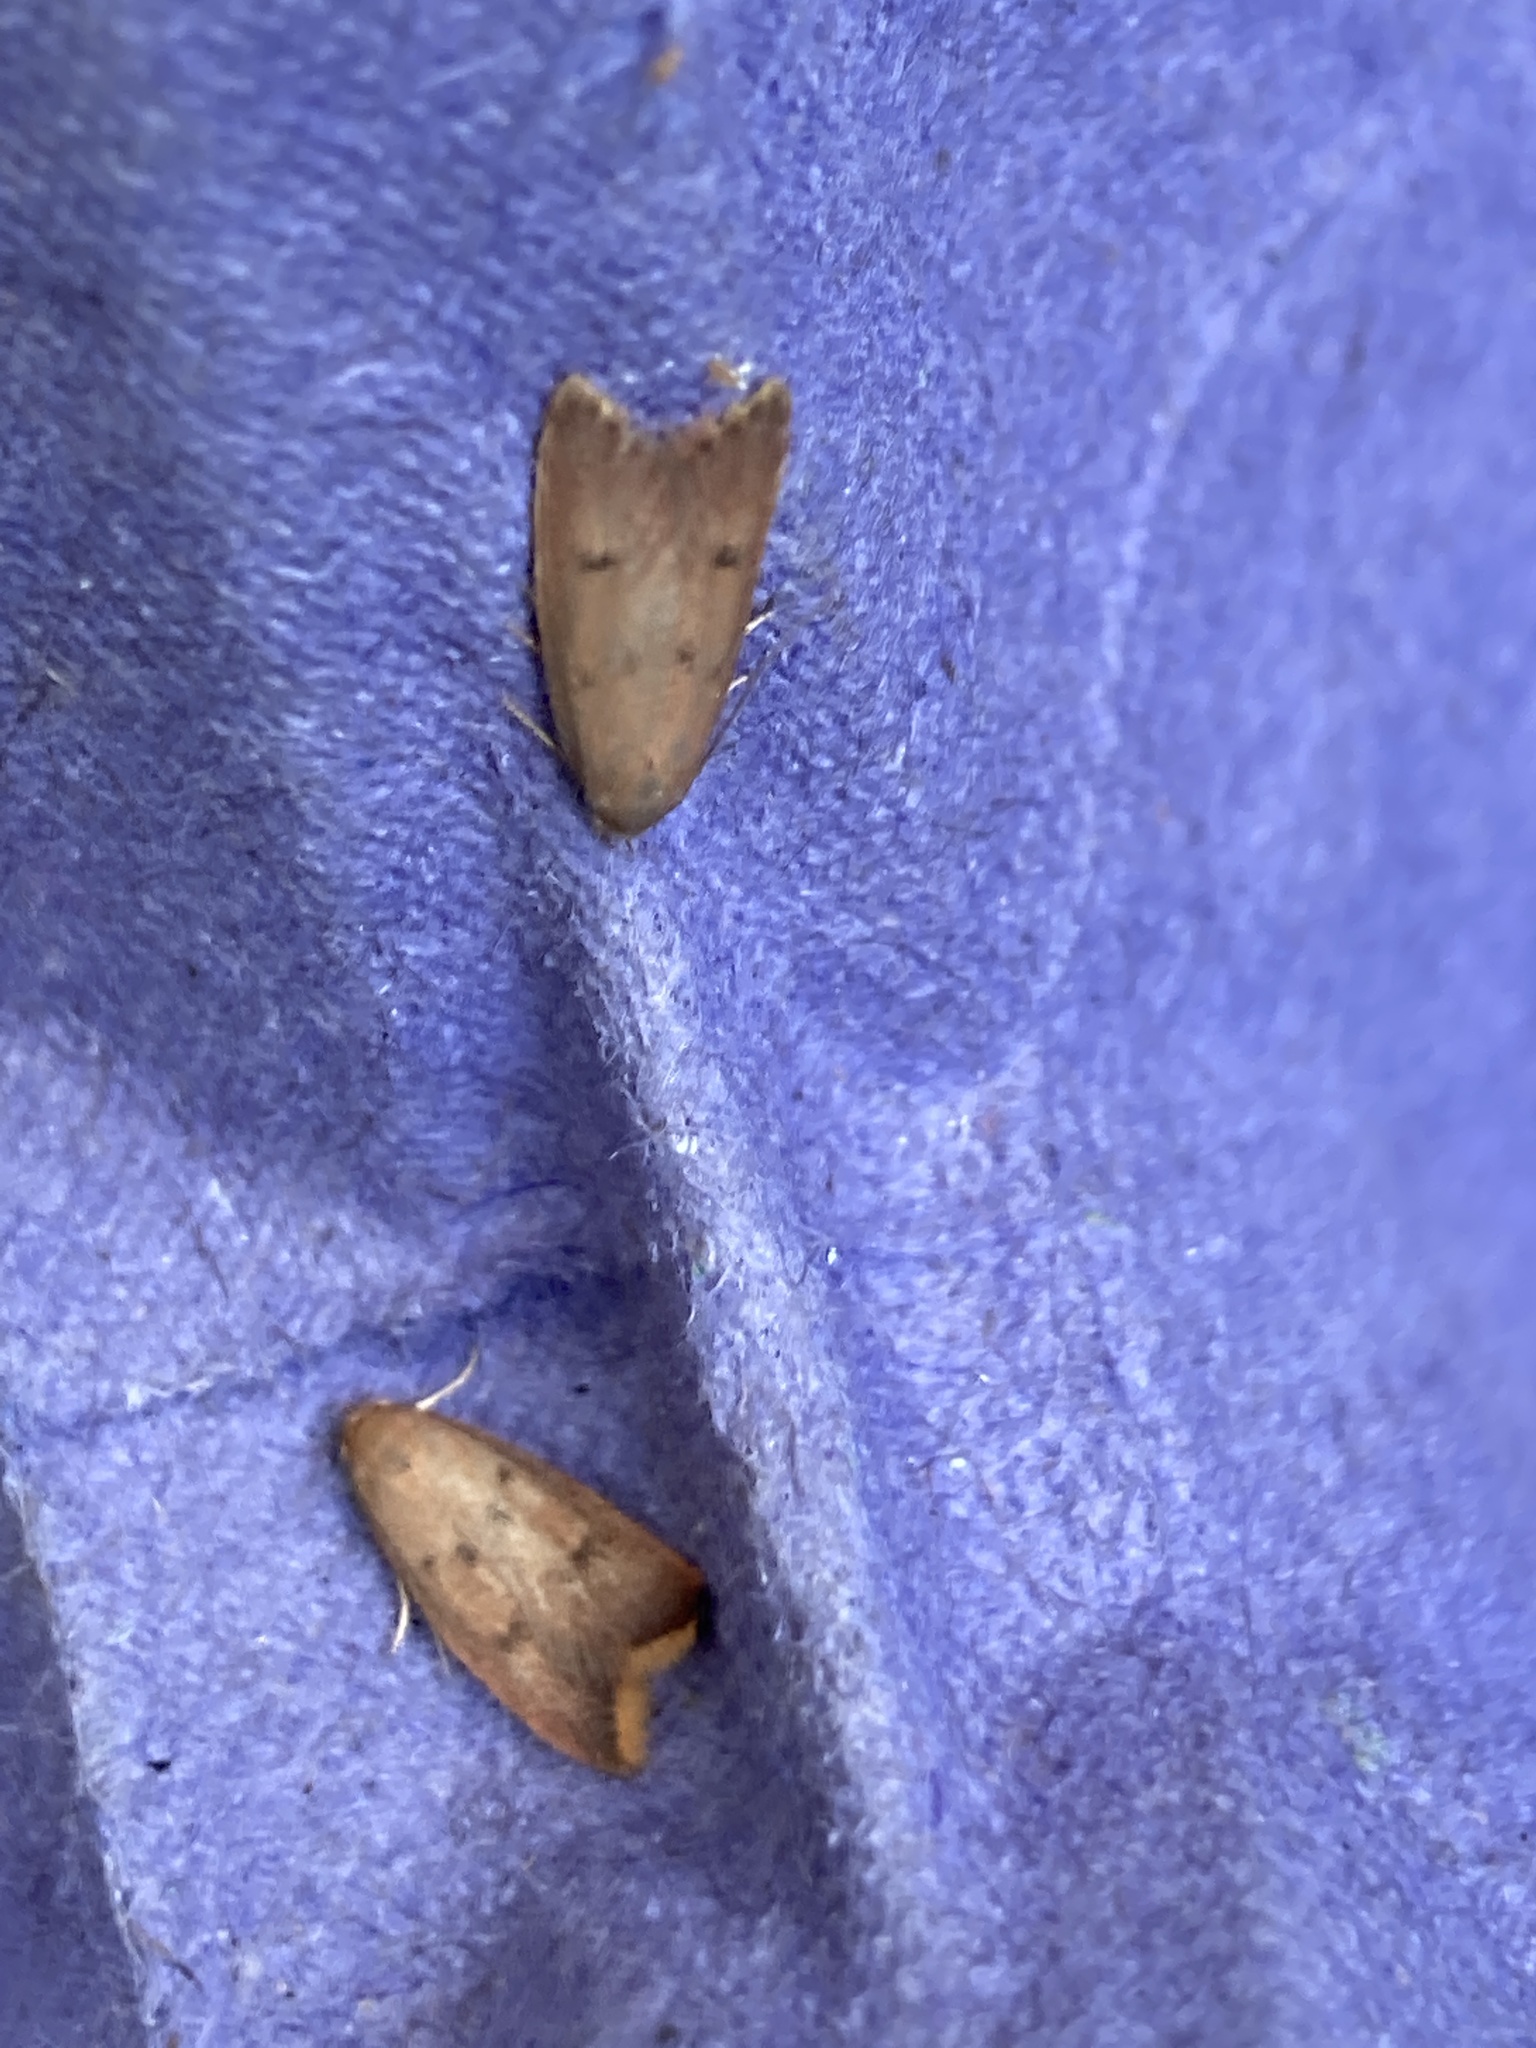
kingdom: Animalia
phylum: Arthropoda
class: Insecta
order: Lepidoptera
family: Oecophoridae
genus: Tachystola
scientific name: Tachystola acroxantha
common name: Ruddy streak
